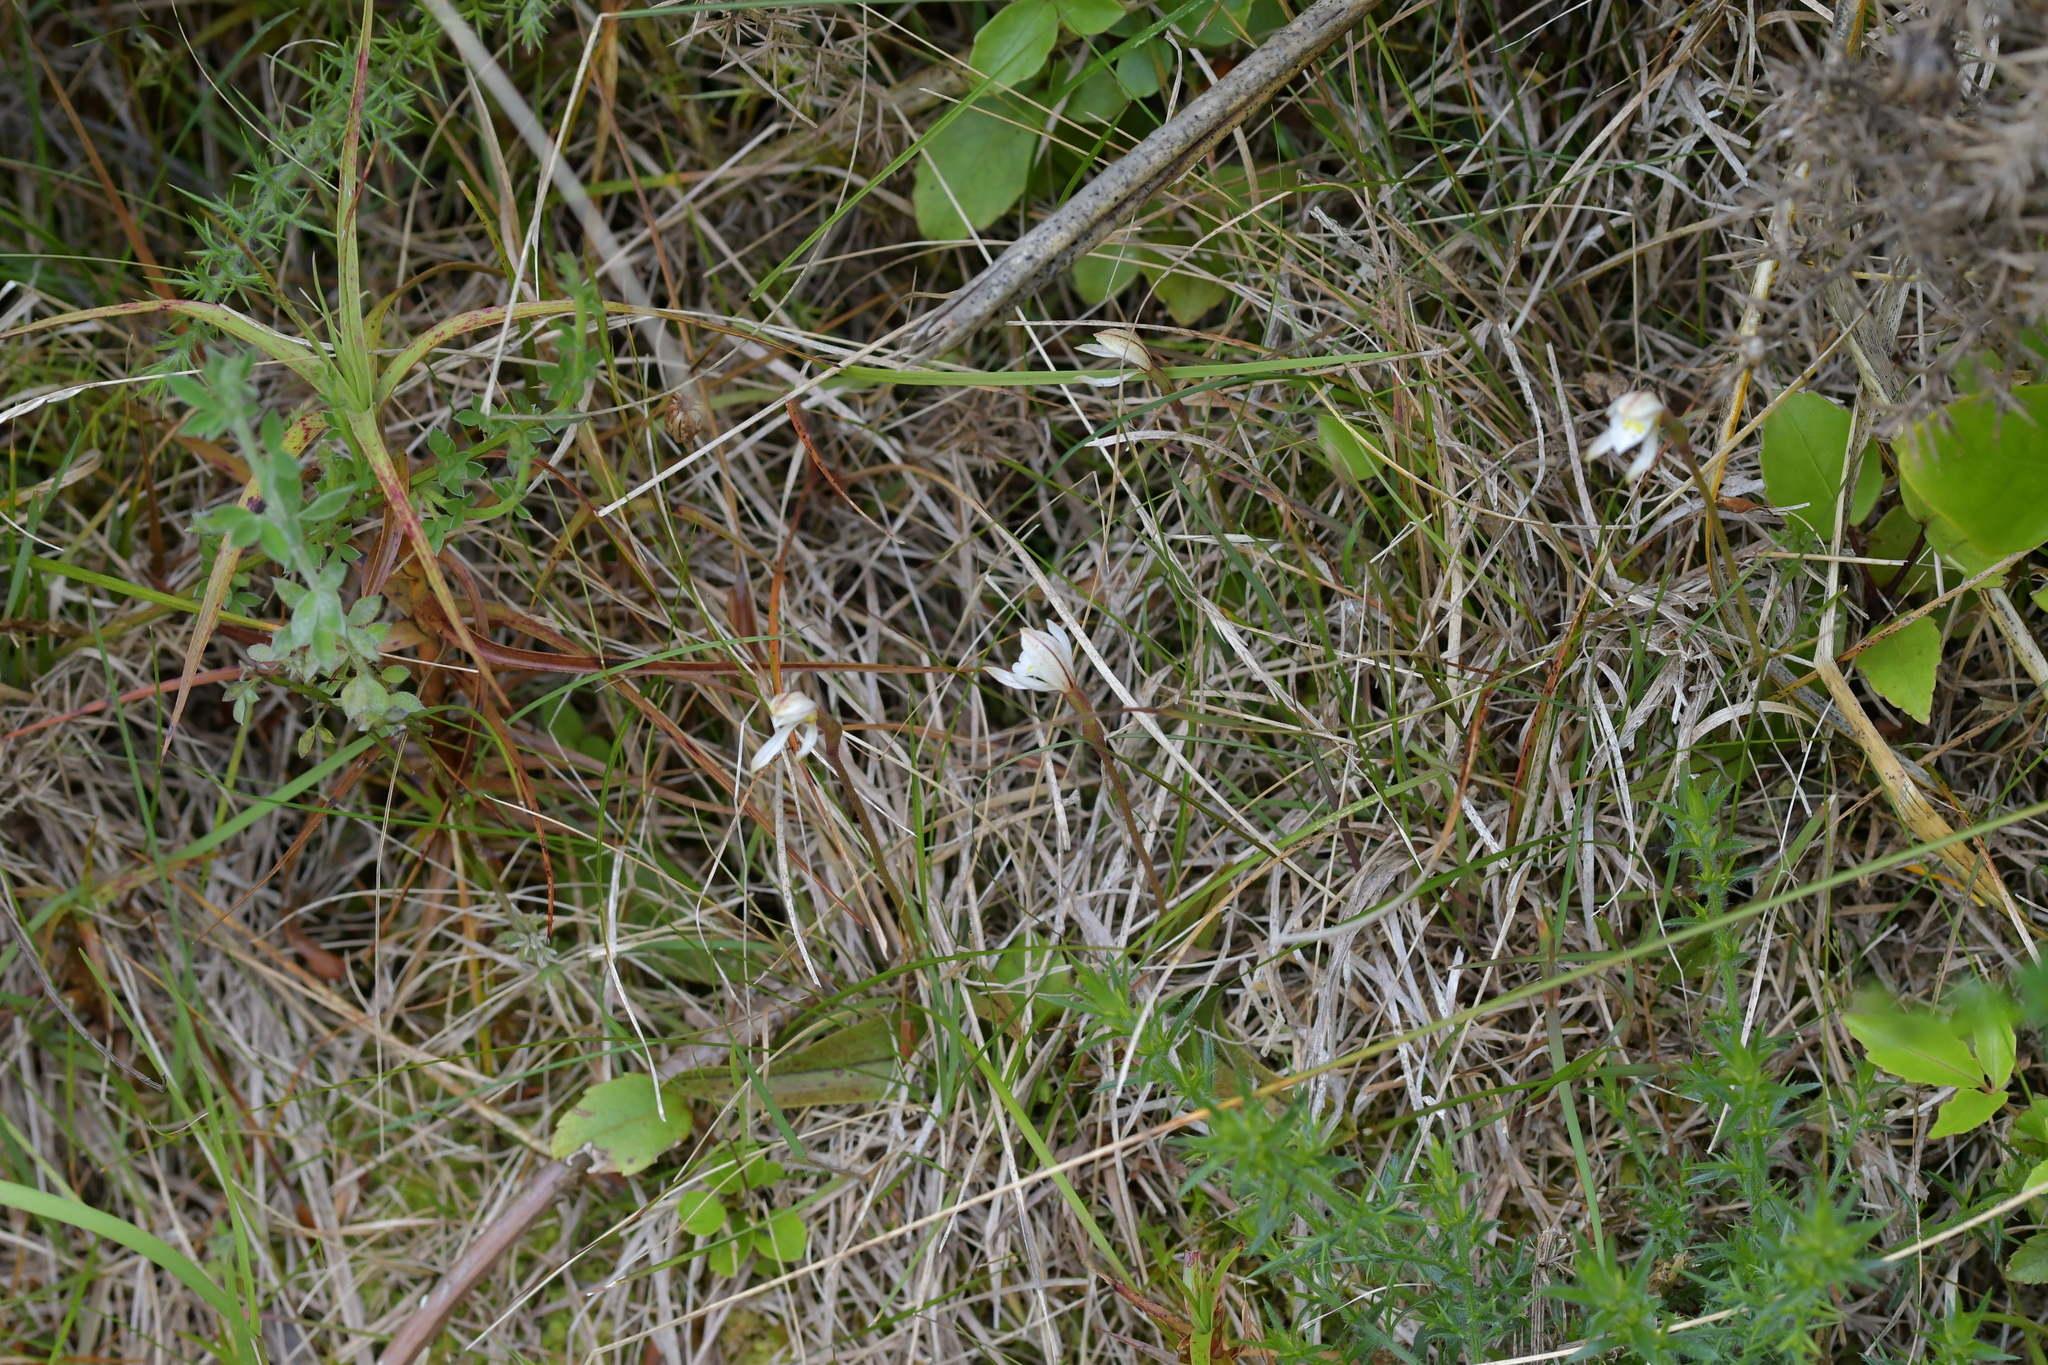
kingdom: Plantae
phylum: Tracheophyta
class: Liliopsida
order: Asparagales
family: Orchidaceae
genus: Aporostylis
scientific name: Aporostylis bifolia
